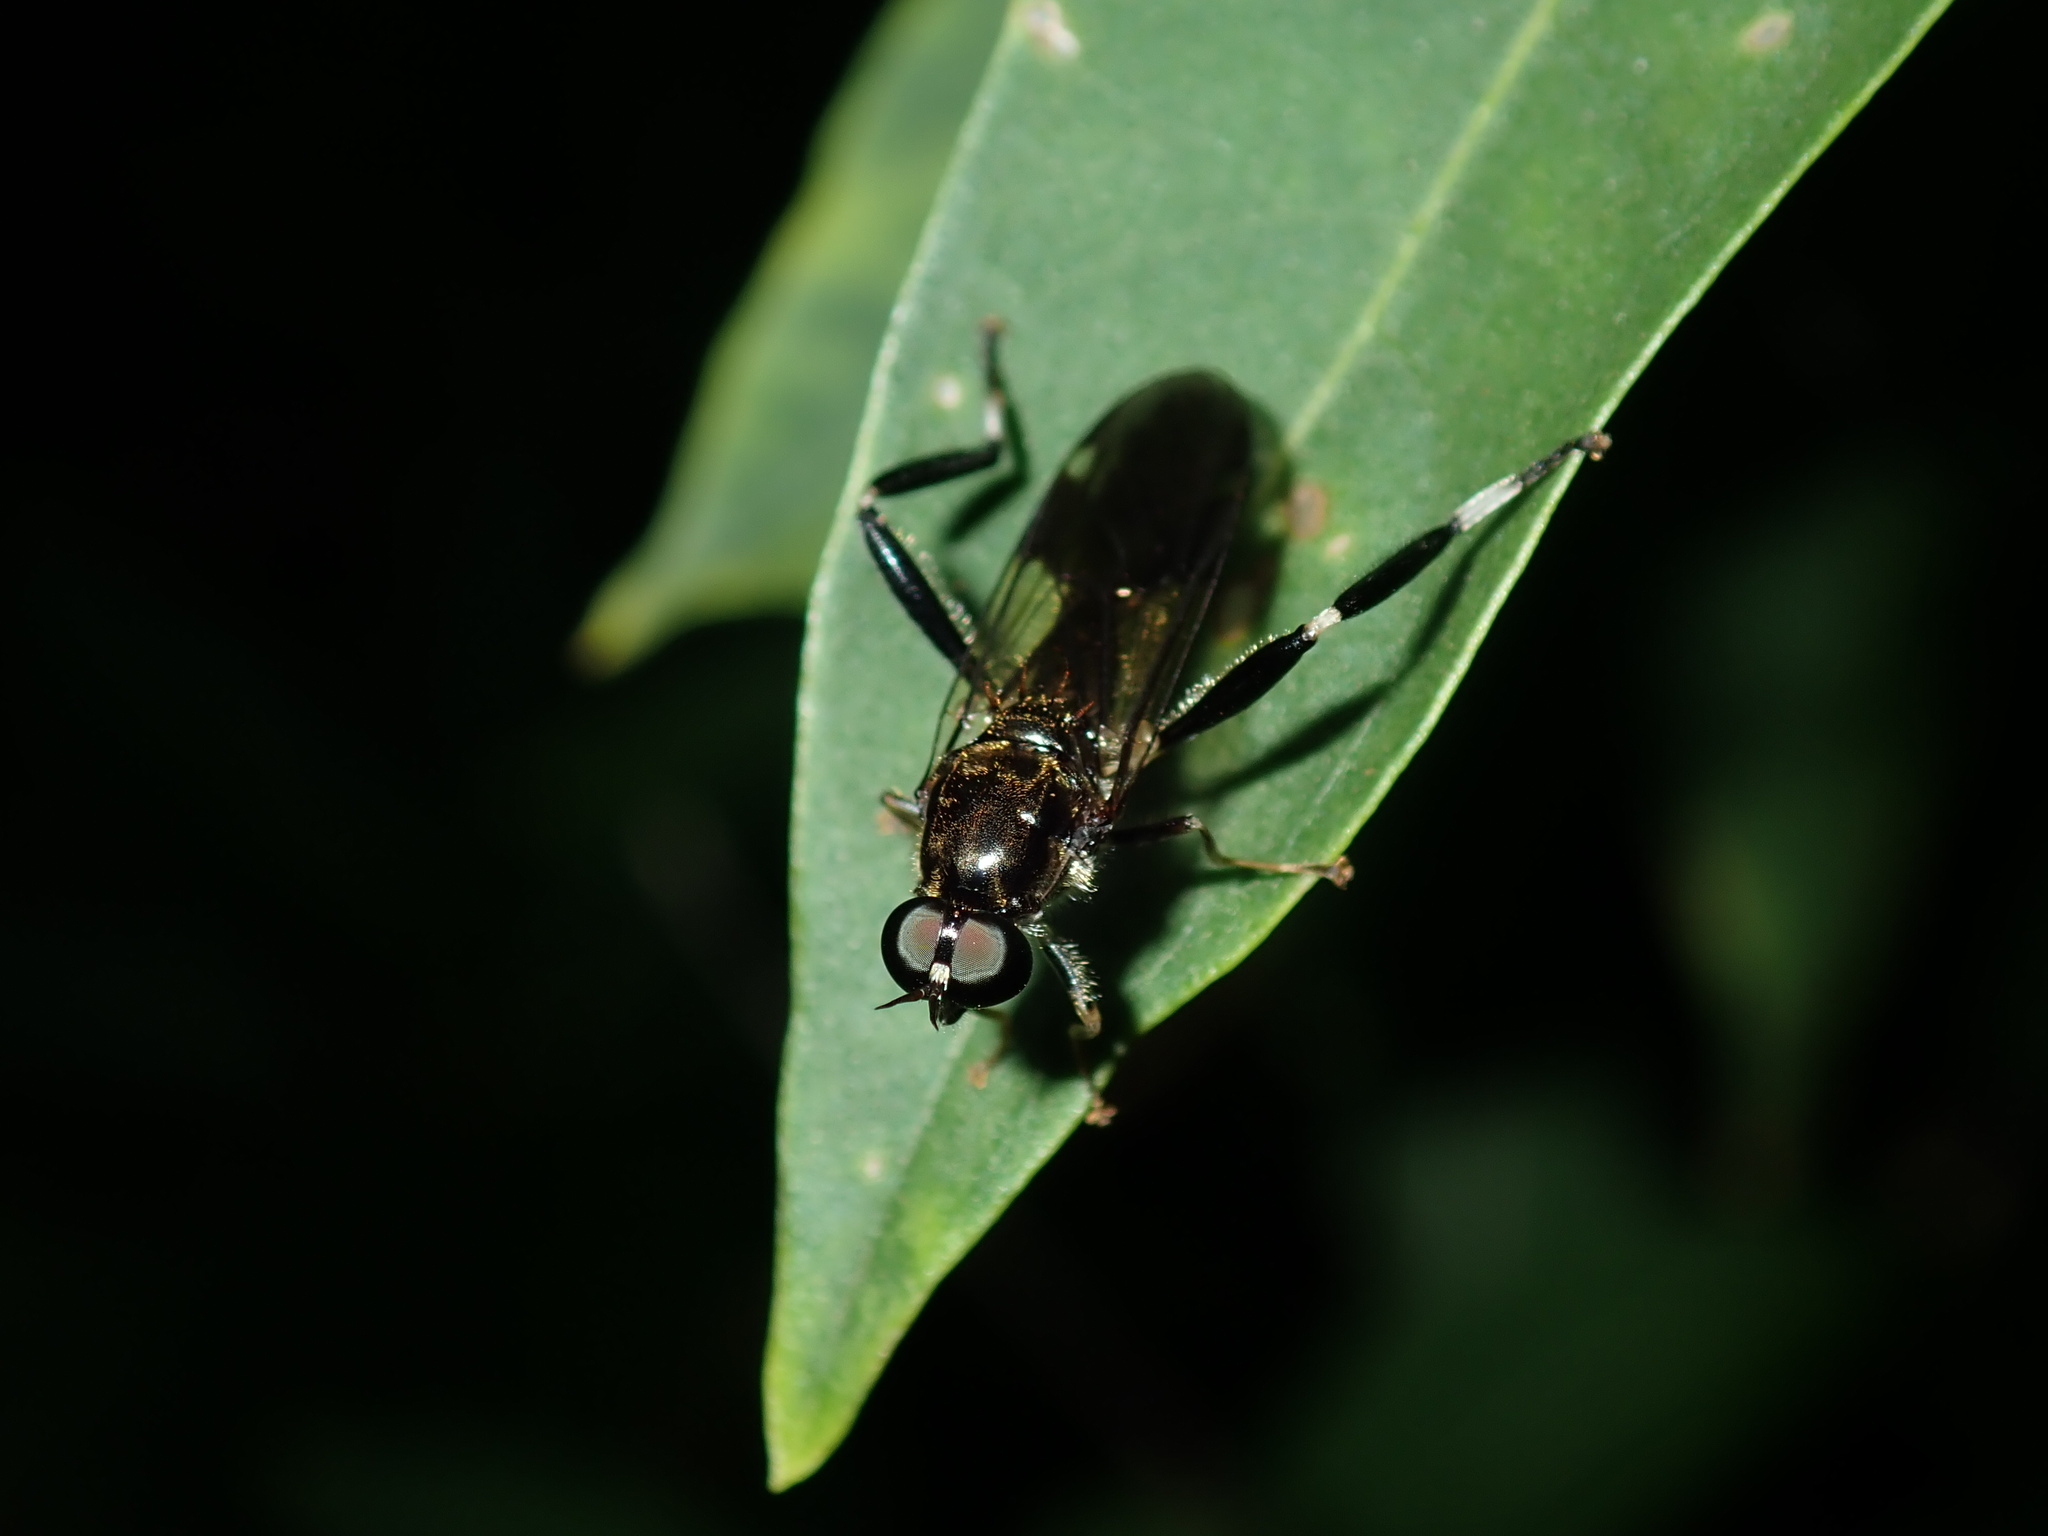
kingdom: Animalia
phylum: Arthropoda
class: Insecta
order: Diptera
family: Stratiomyidae
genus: Exaireta
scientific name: Exaireta spinigera
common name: Blue soldier fly
